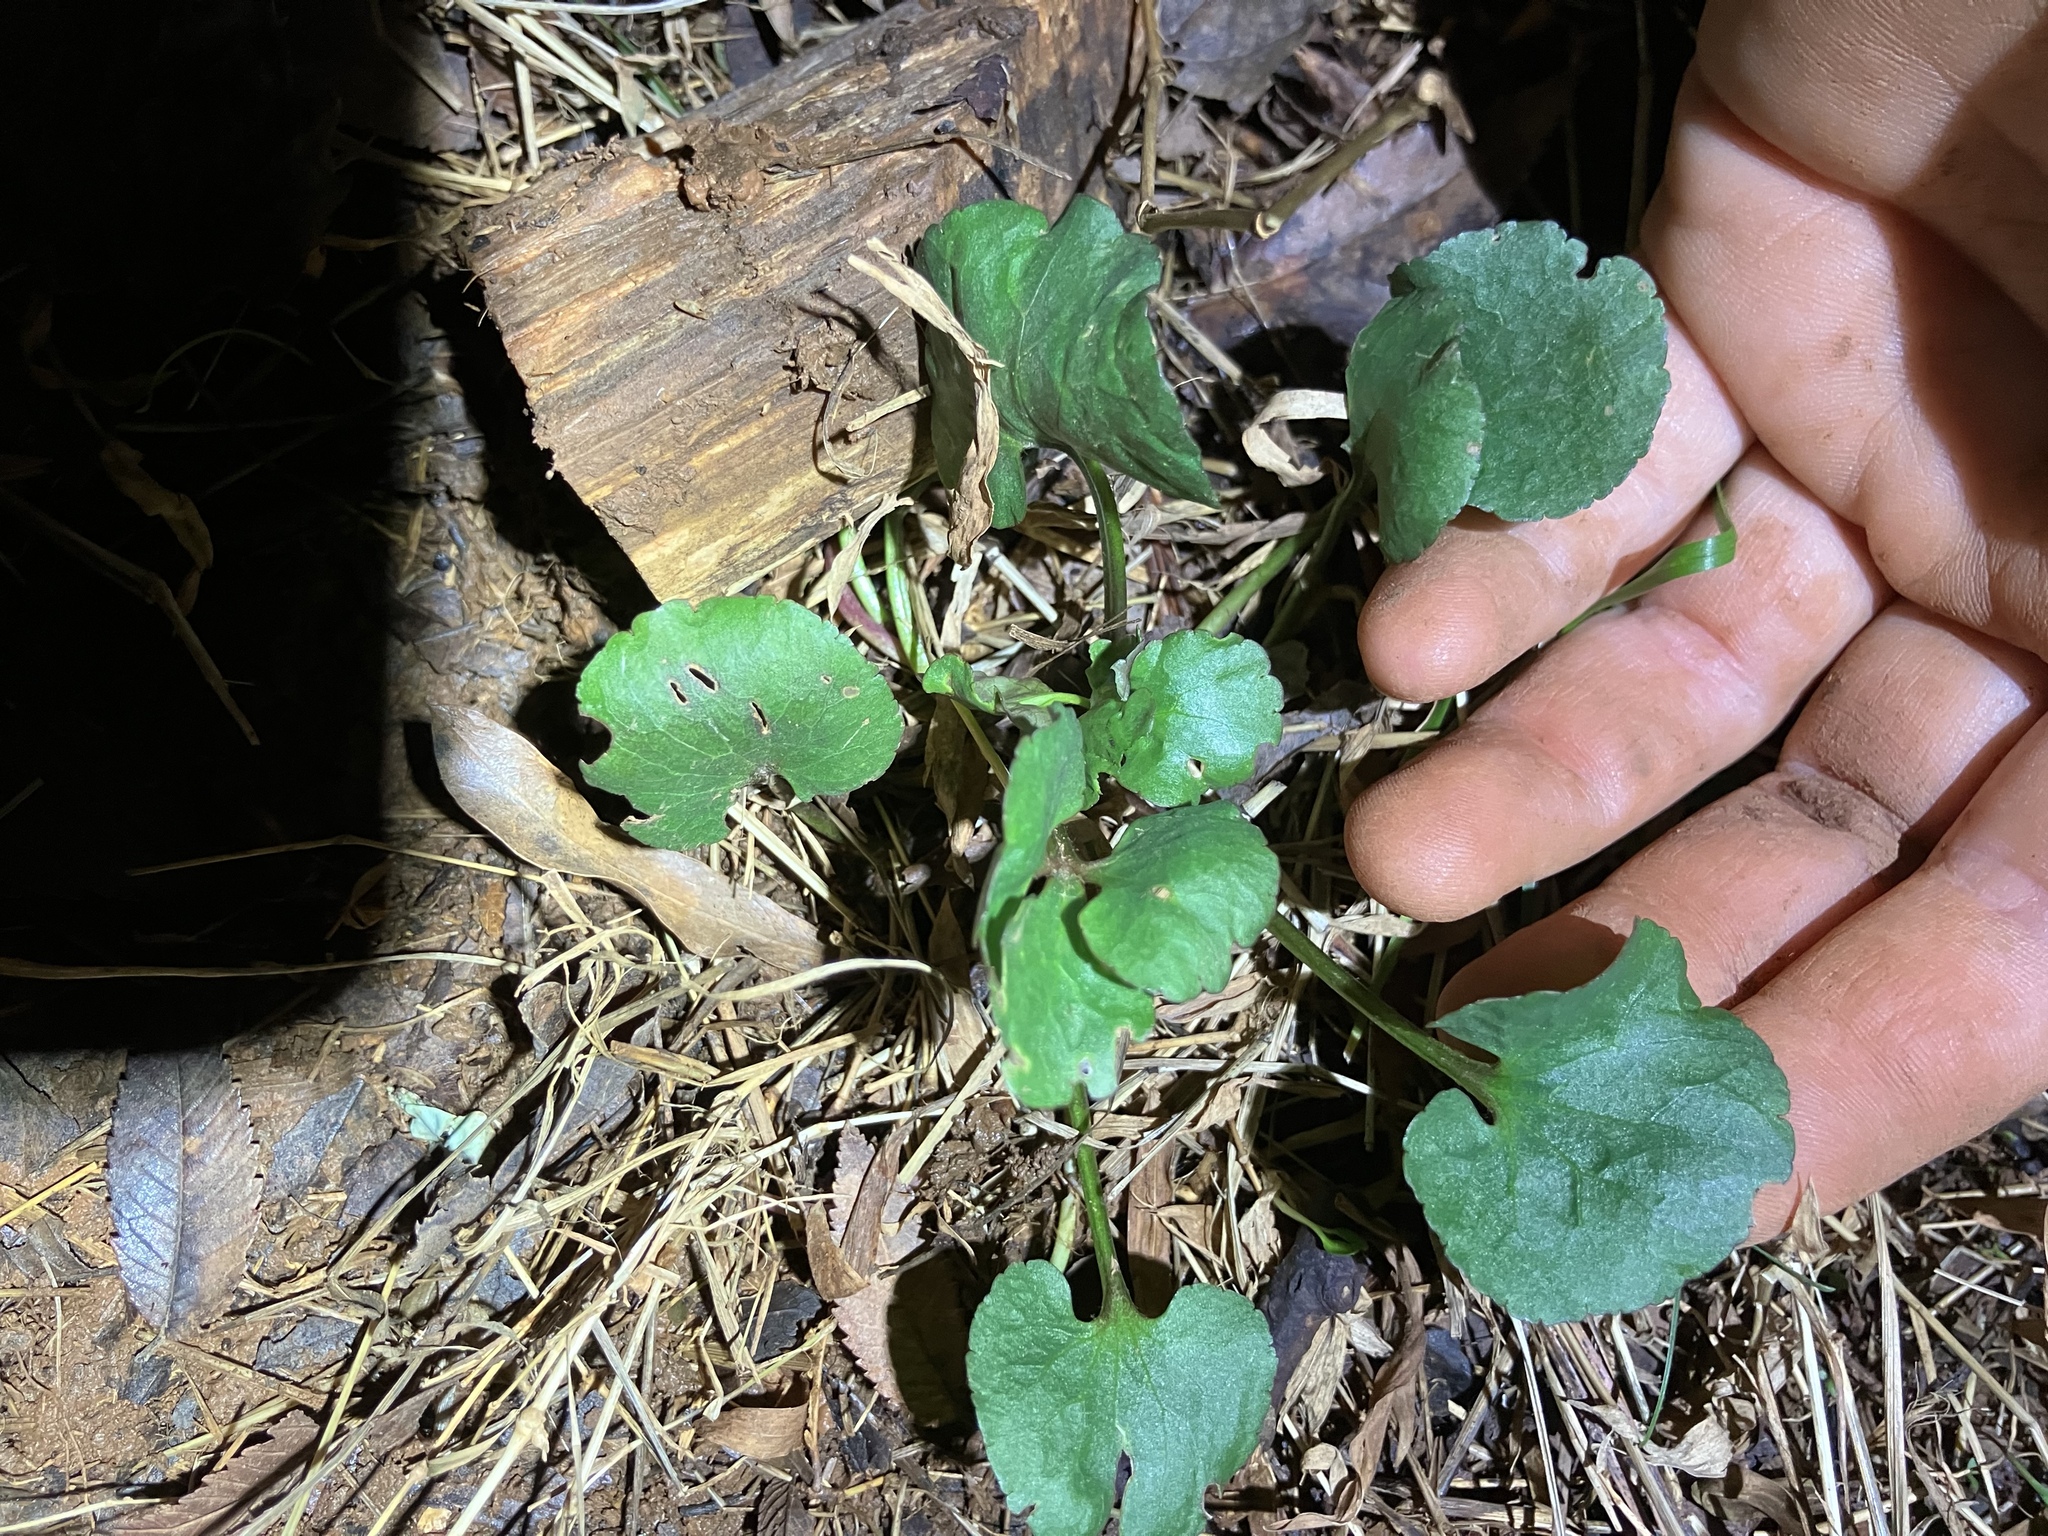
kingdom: Plantae
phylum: Tracheophyta
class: Magnoliopsida
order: Ranunculales
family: Ranunculaceae
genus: Ranunculus
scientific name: Ranunculus abortivus
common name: Early wood buttercup
